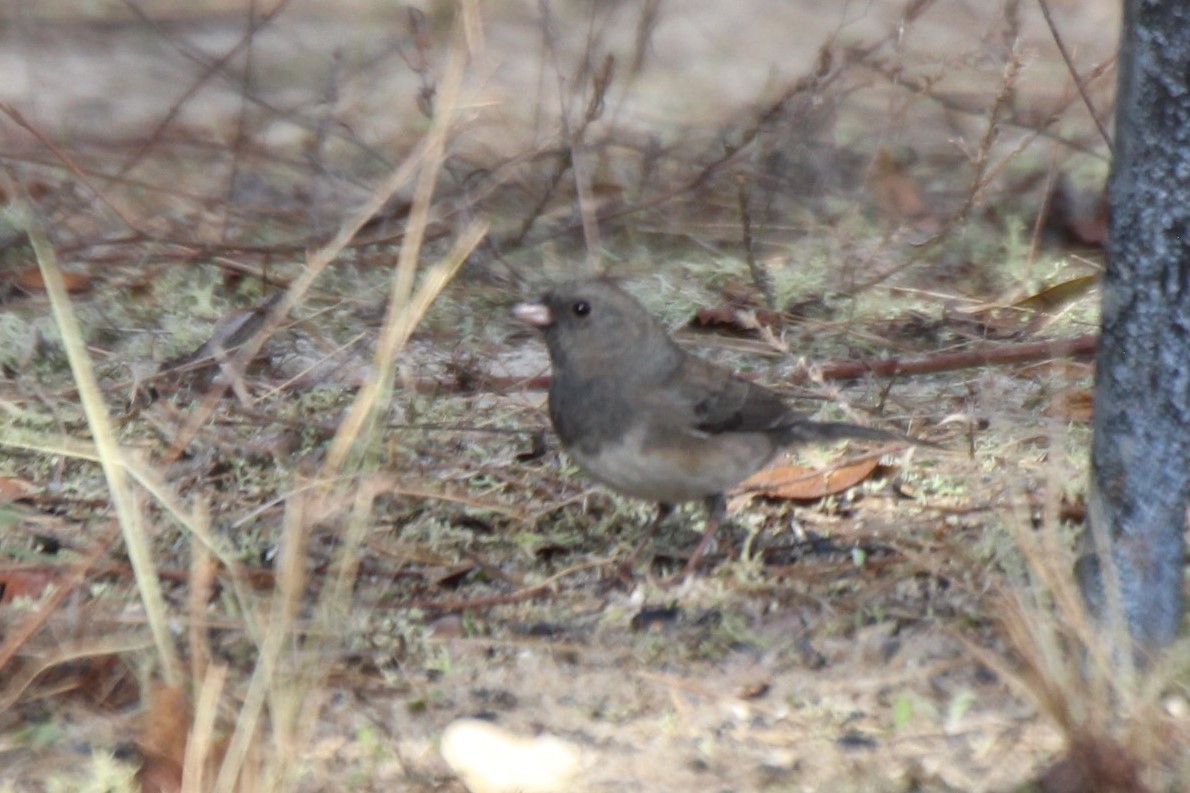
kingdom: Animalia
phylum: Chordata
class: Aves
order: Passeriformes
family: Passerellidae
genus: Junco
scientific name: Junco hyemalis
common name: Dark-eyed junco
